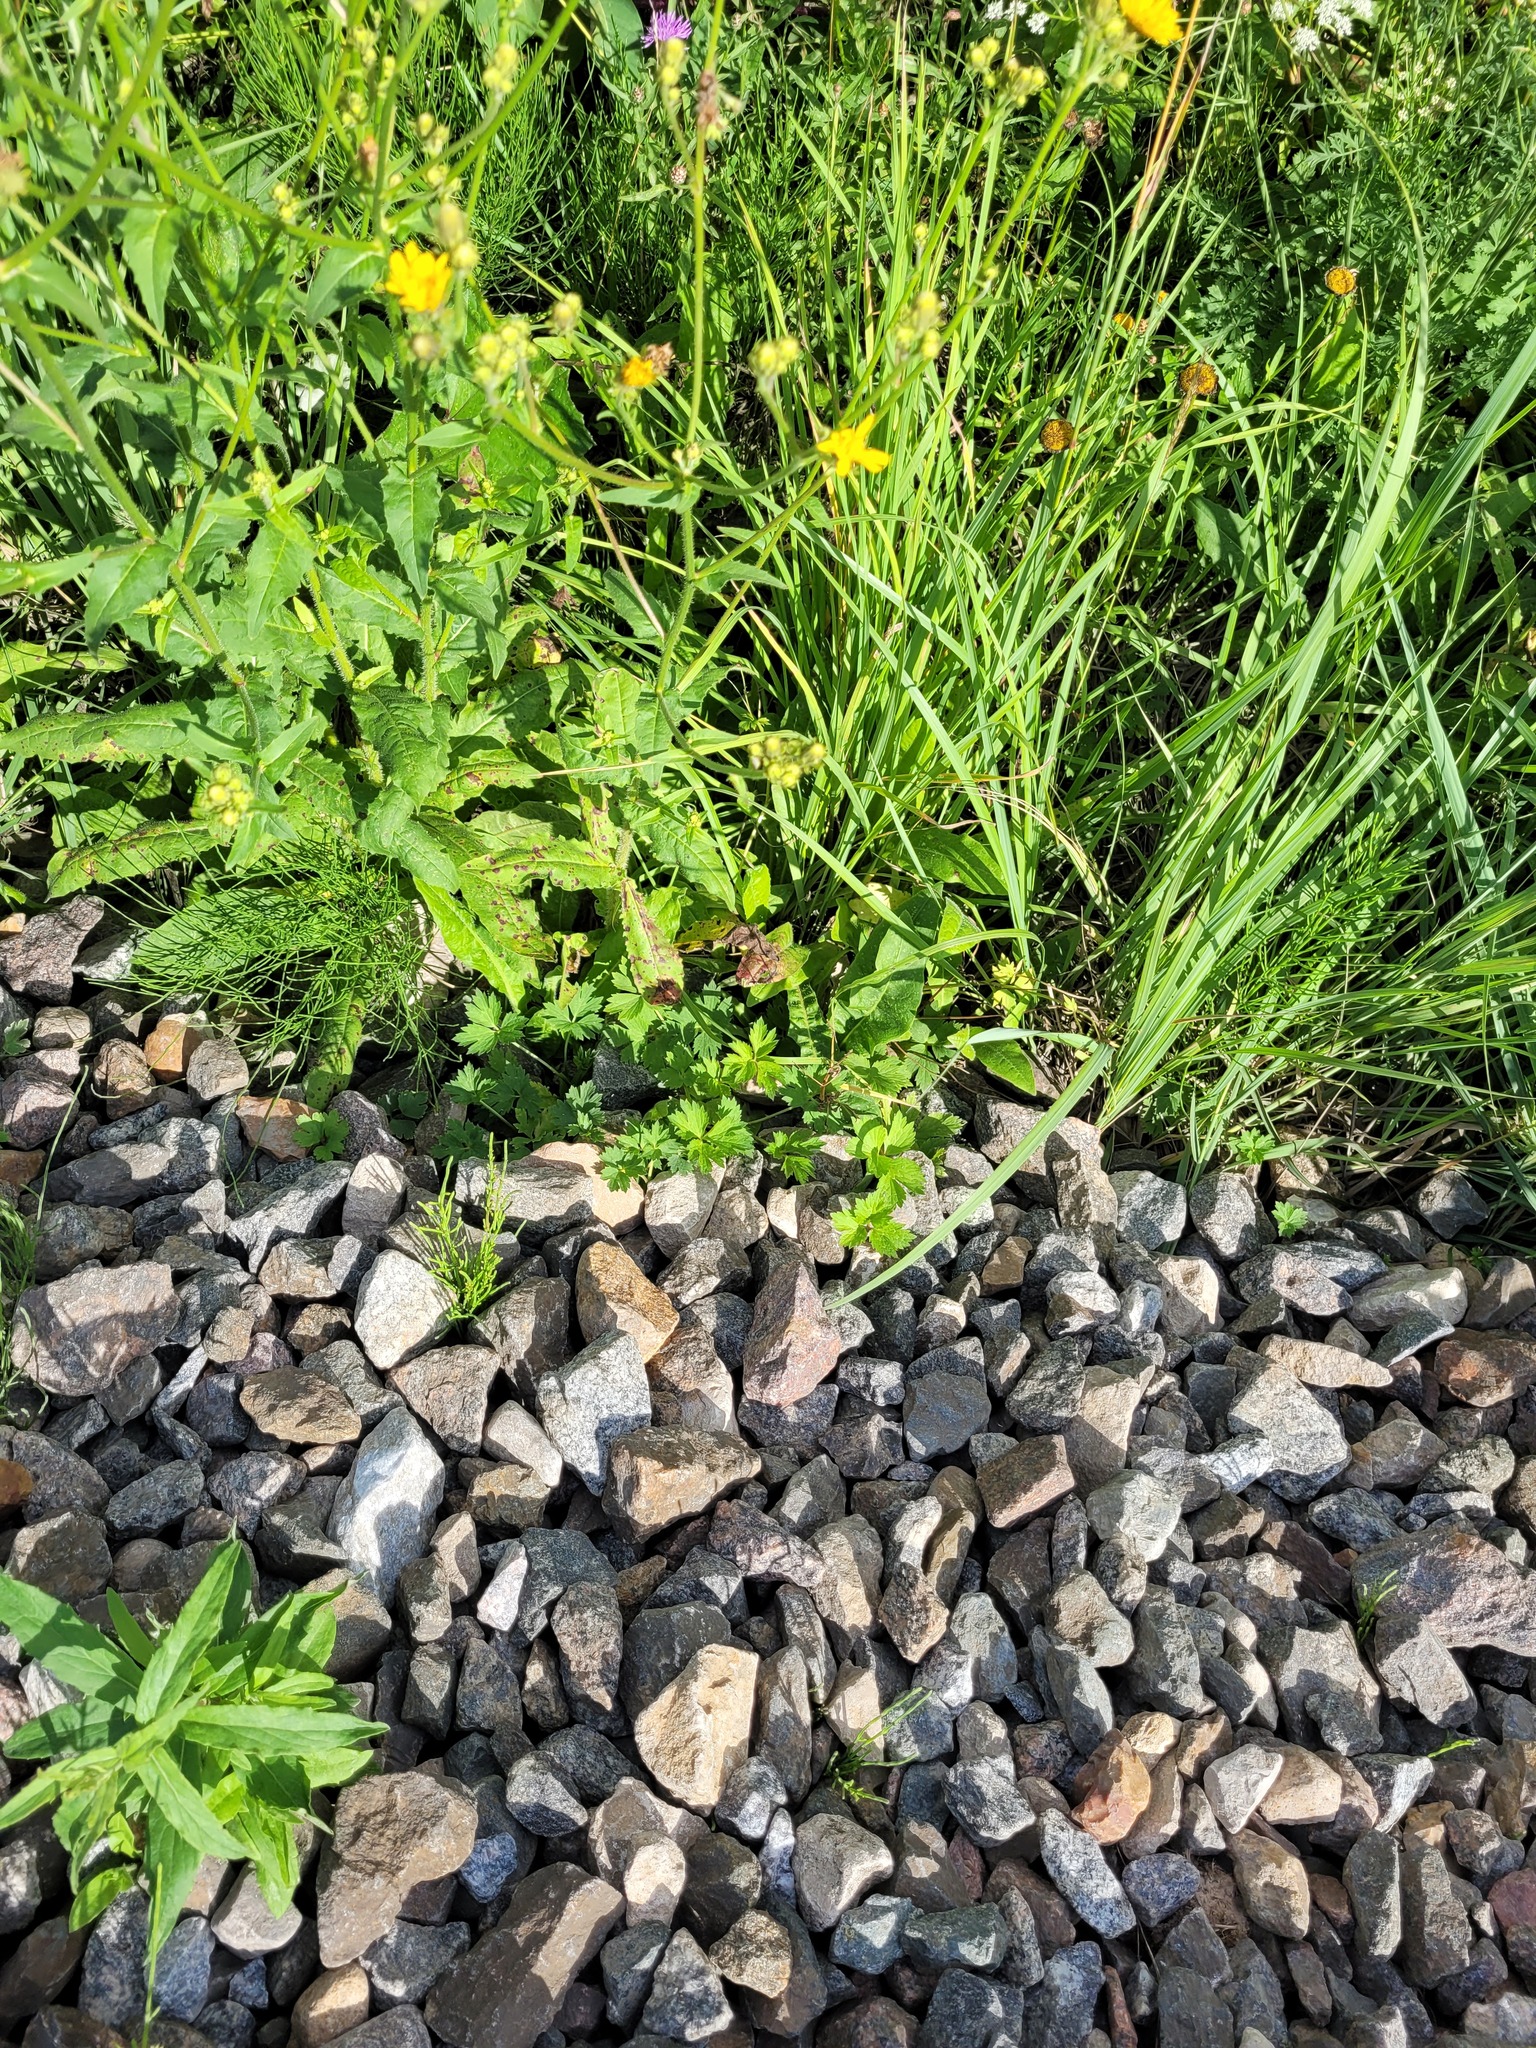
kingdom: Plantae
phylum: Tracheophyta
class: Magnoliopsida
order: Ranunculales
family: Ranunculaceae
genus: Ranunculus
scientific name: Ranunculus repens
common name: Creeping buttercup
